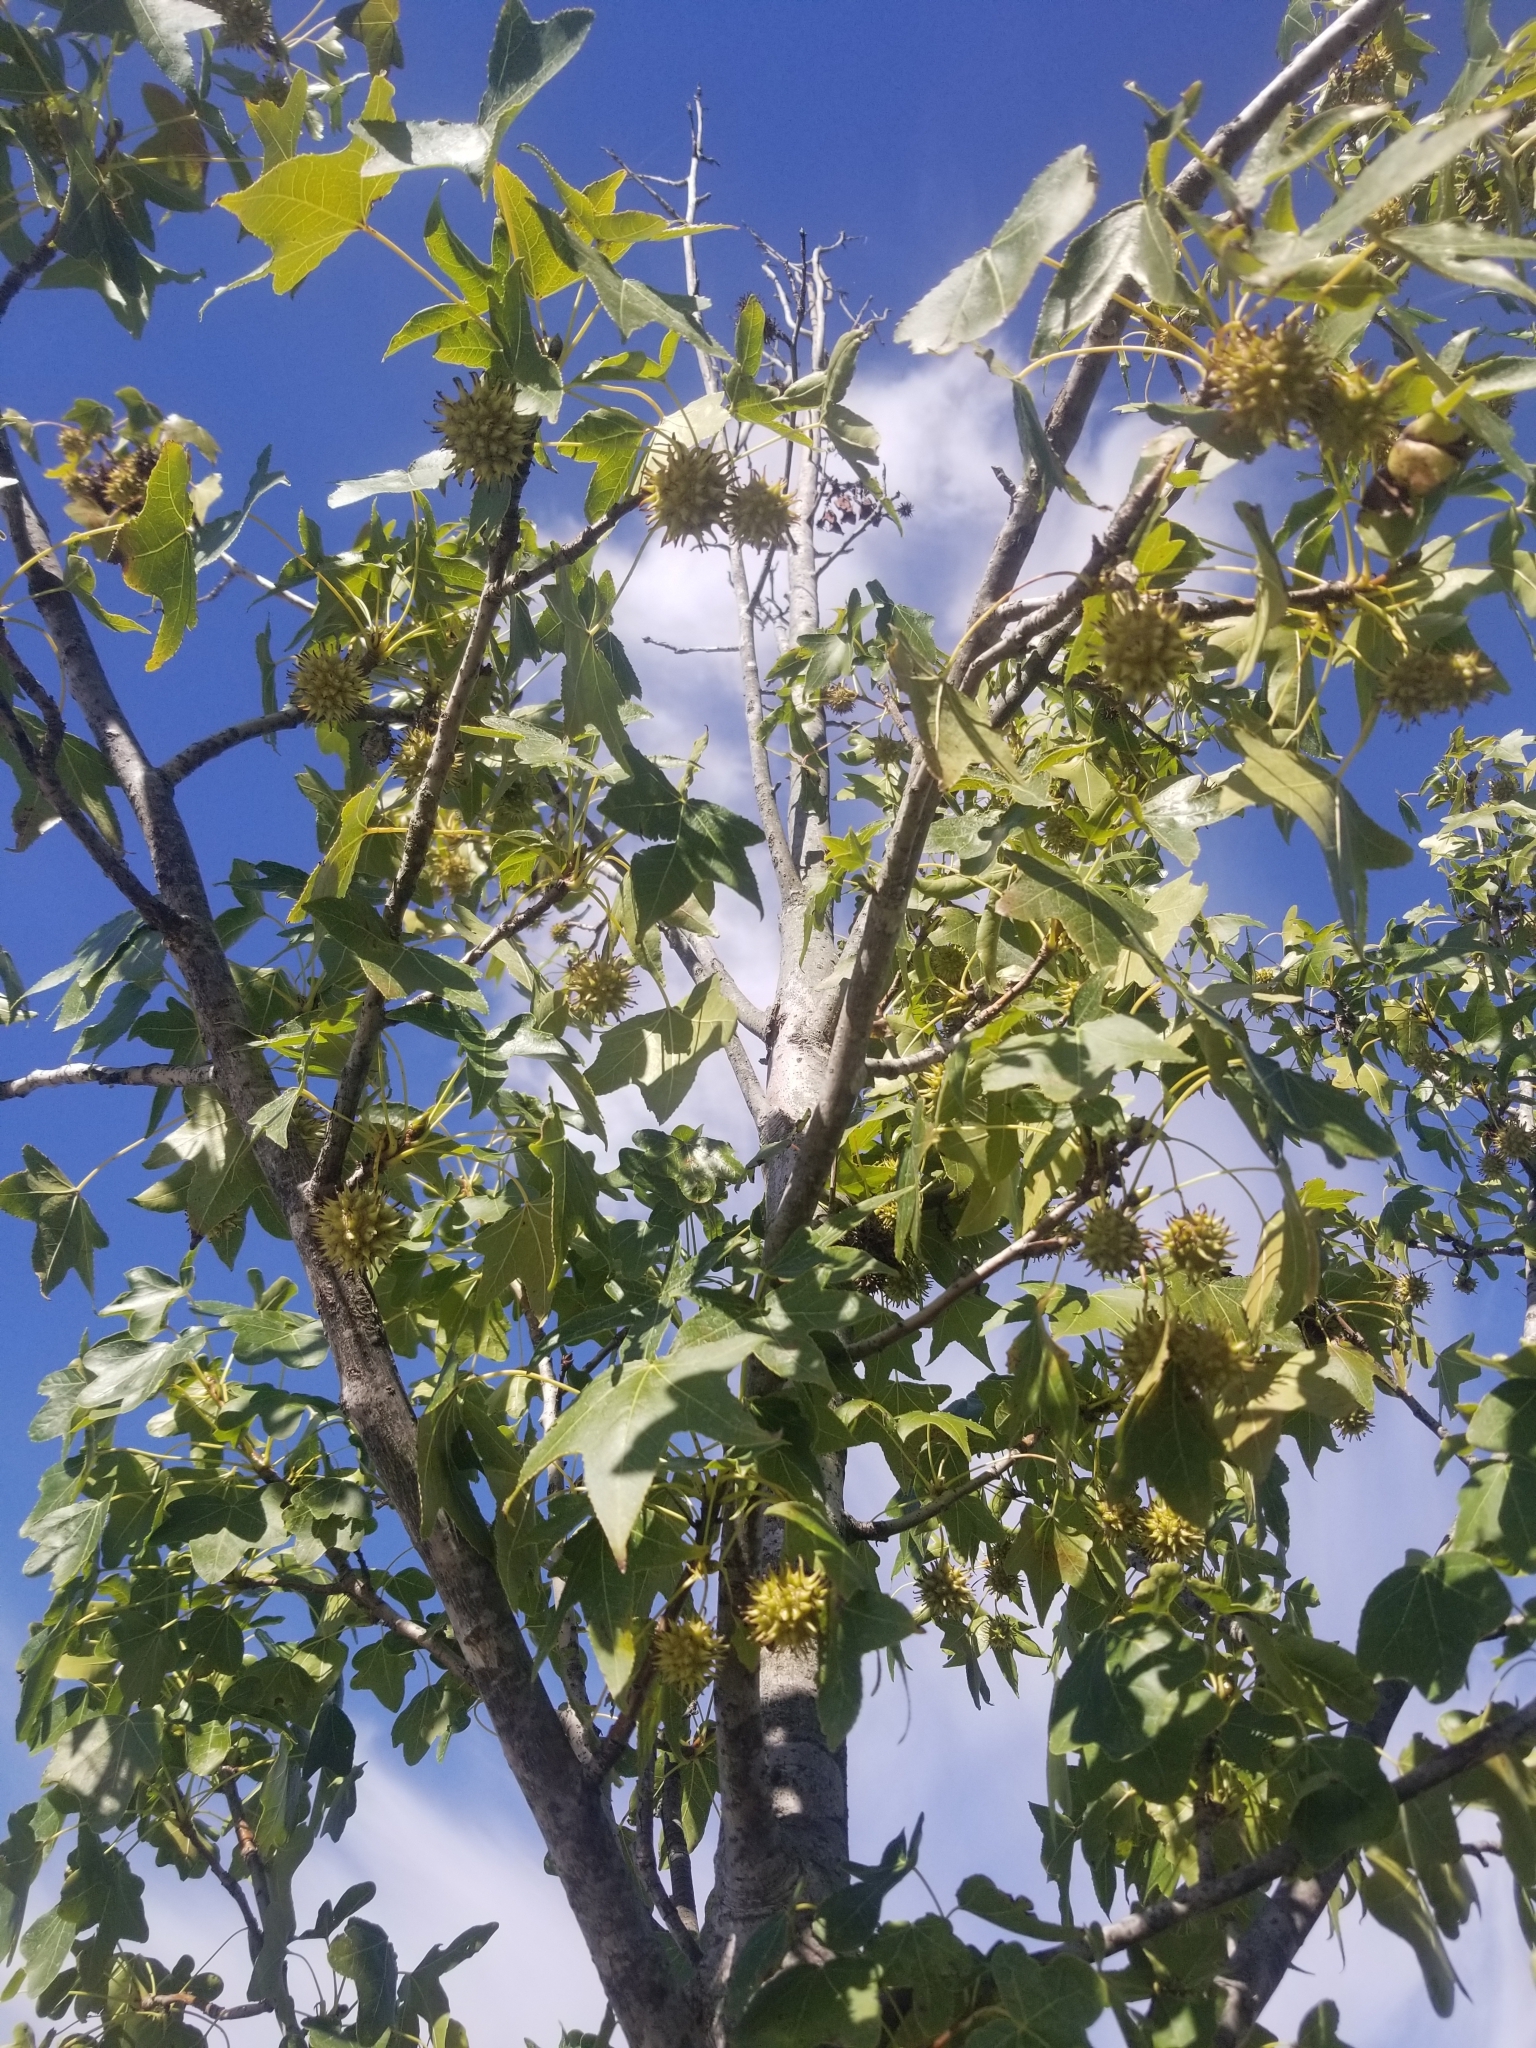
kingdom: Plantae
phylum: Tracheophyta
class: Magnoliopsida
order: Saxifragales
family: Altingiaceae
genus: Liquidambar
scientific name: Liquidambar styraciflua
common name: Sweet gum
